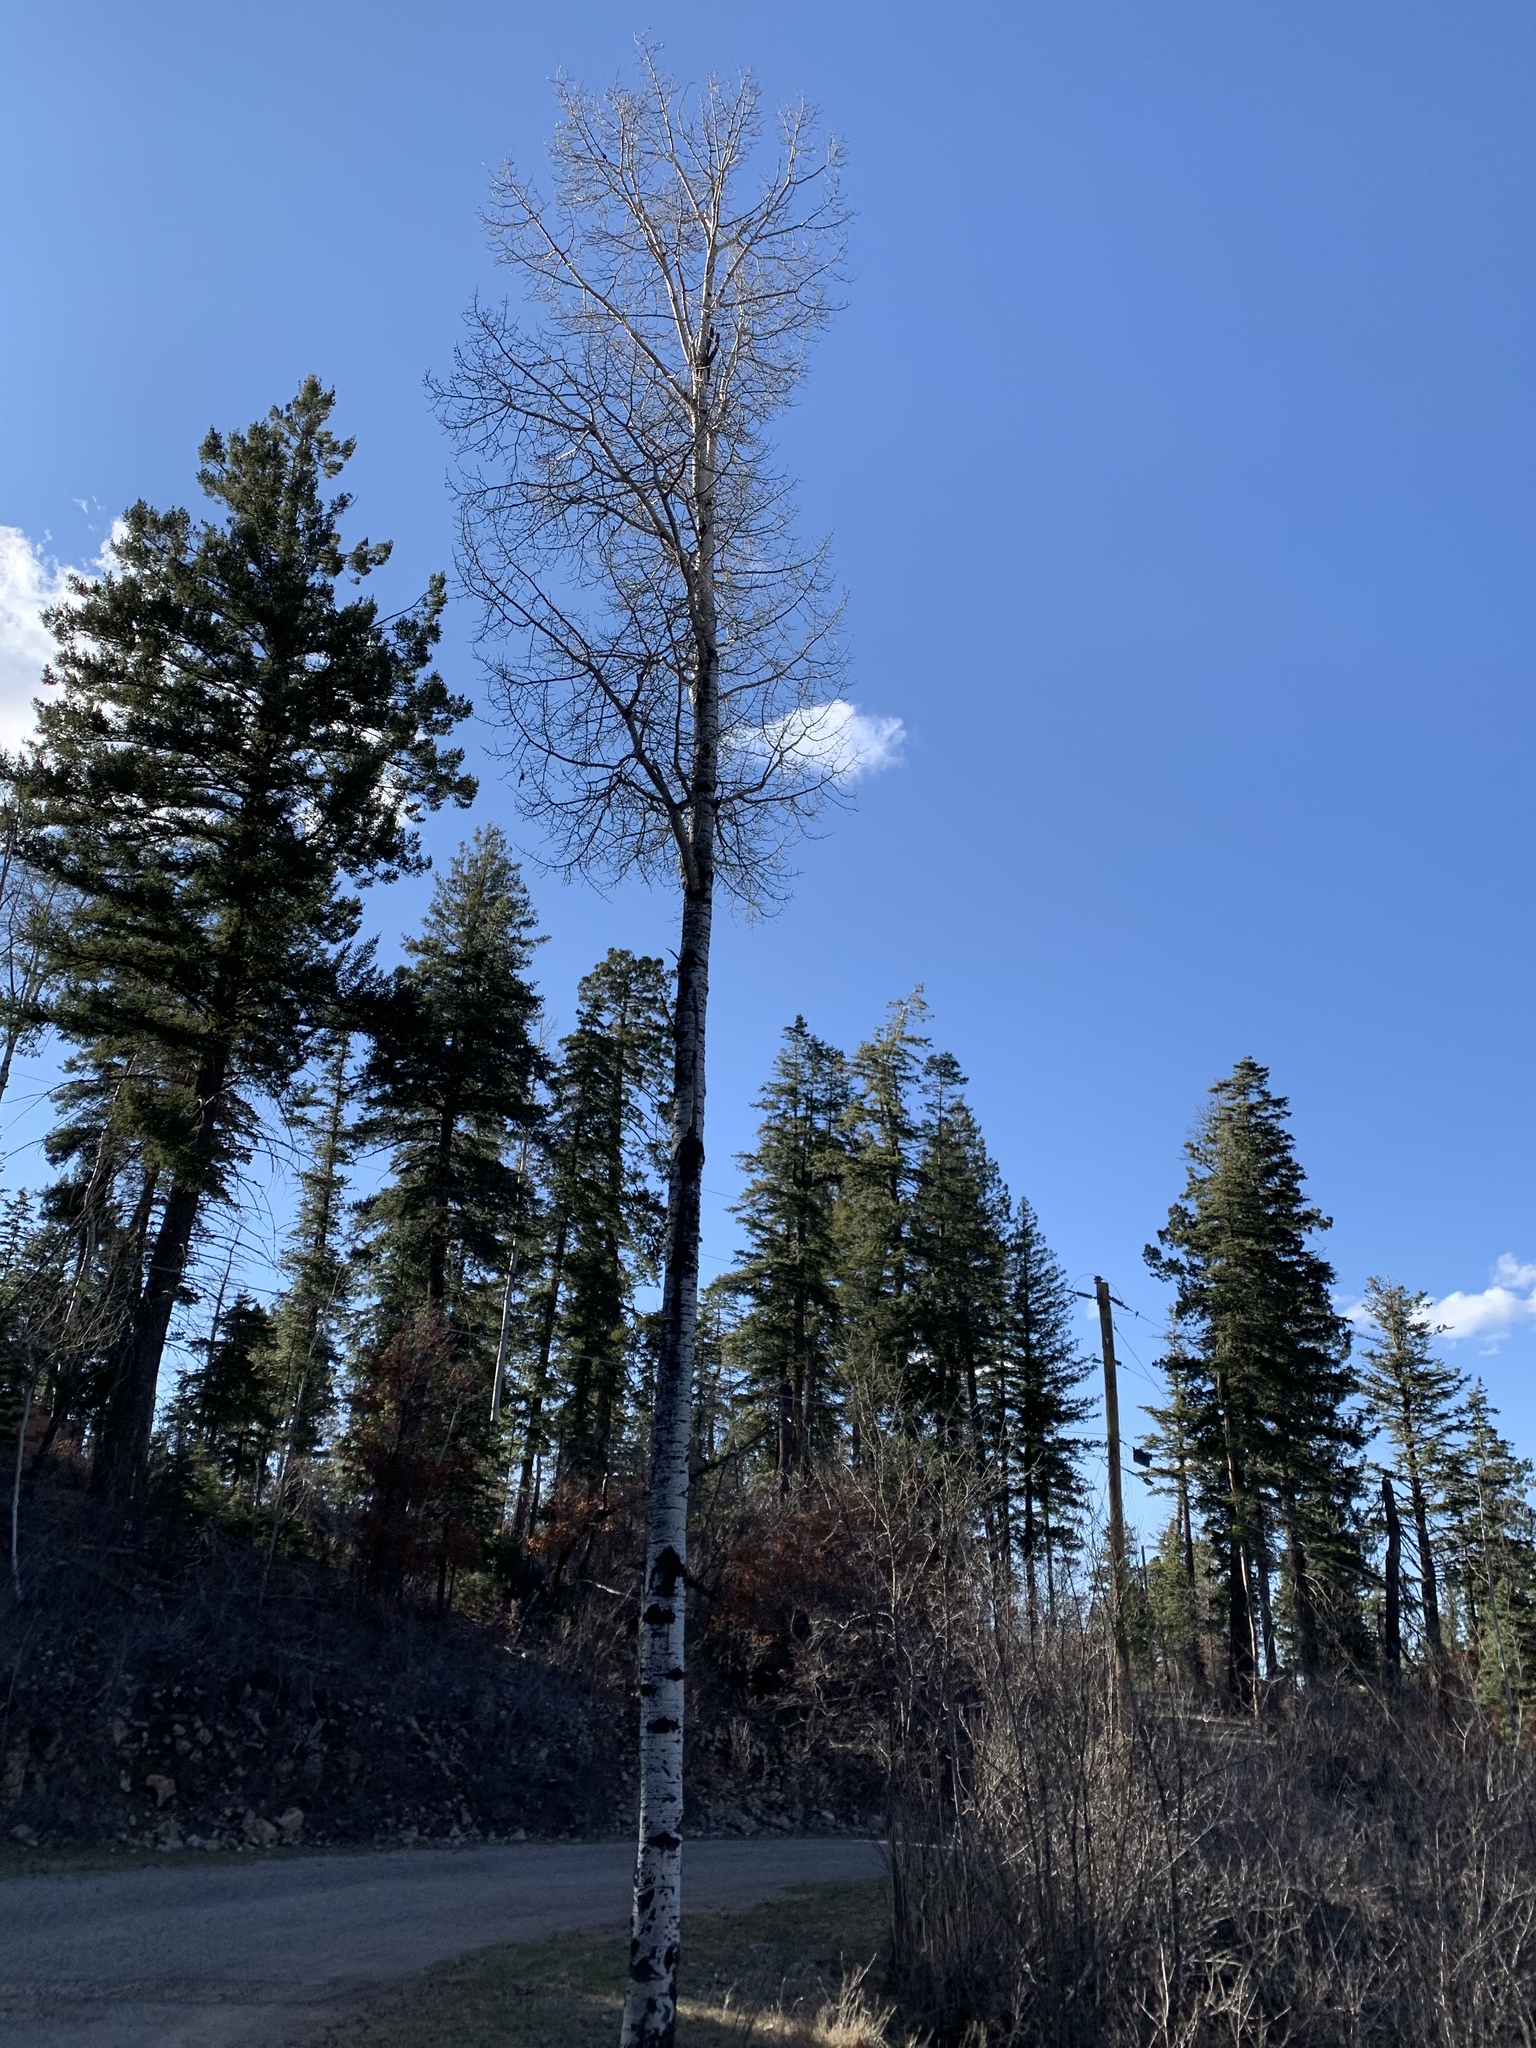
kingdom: Plantae
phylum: Tracheophyta
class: Magnoliopsida
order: Malpighiales
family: Salicaceae
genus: Populus
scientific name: Populus tremuloides
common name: Quaking aspen
